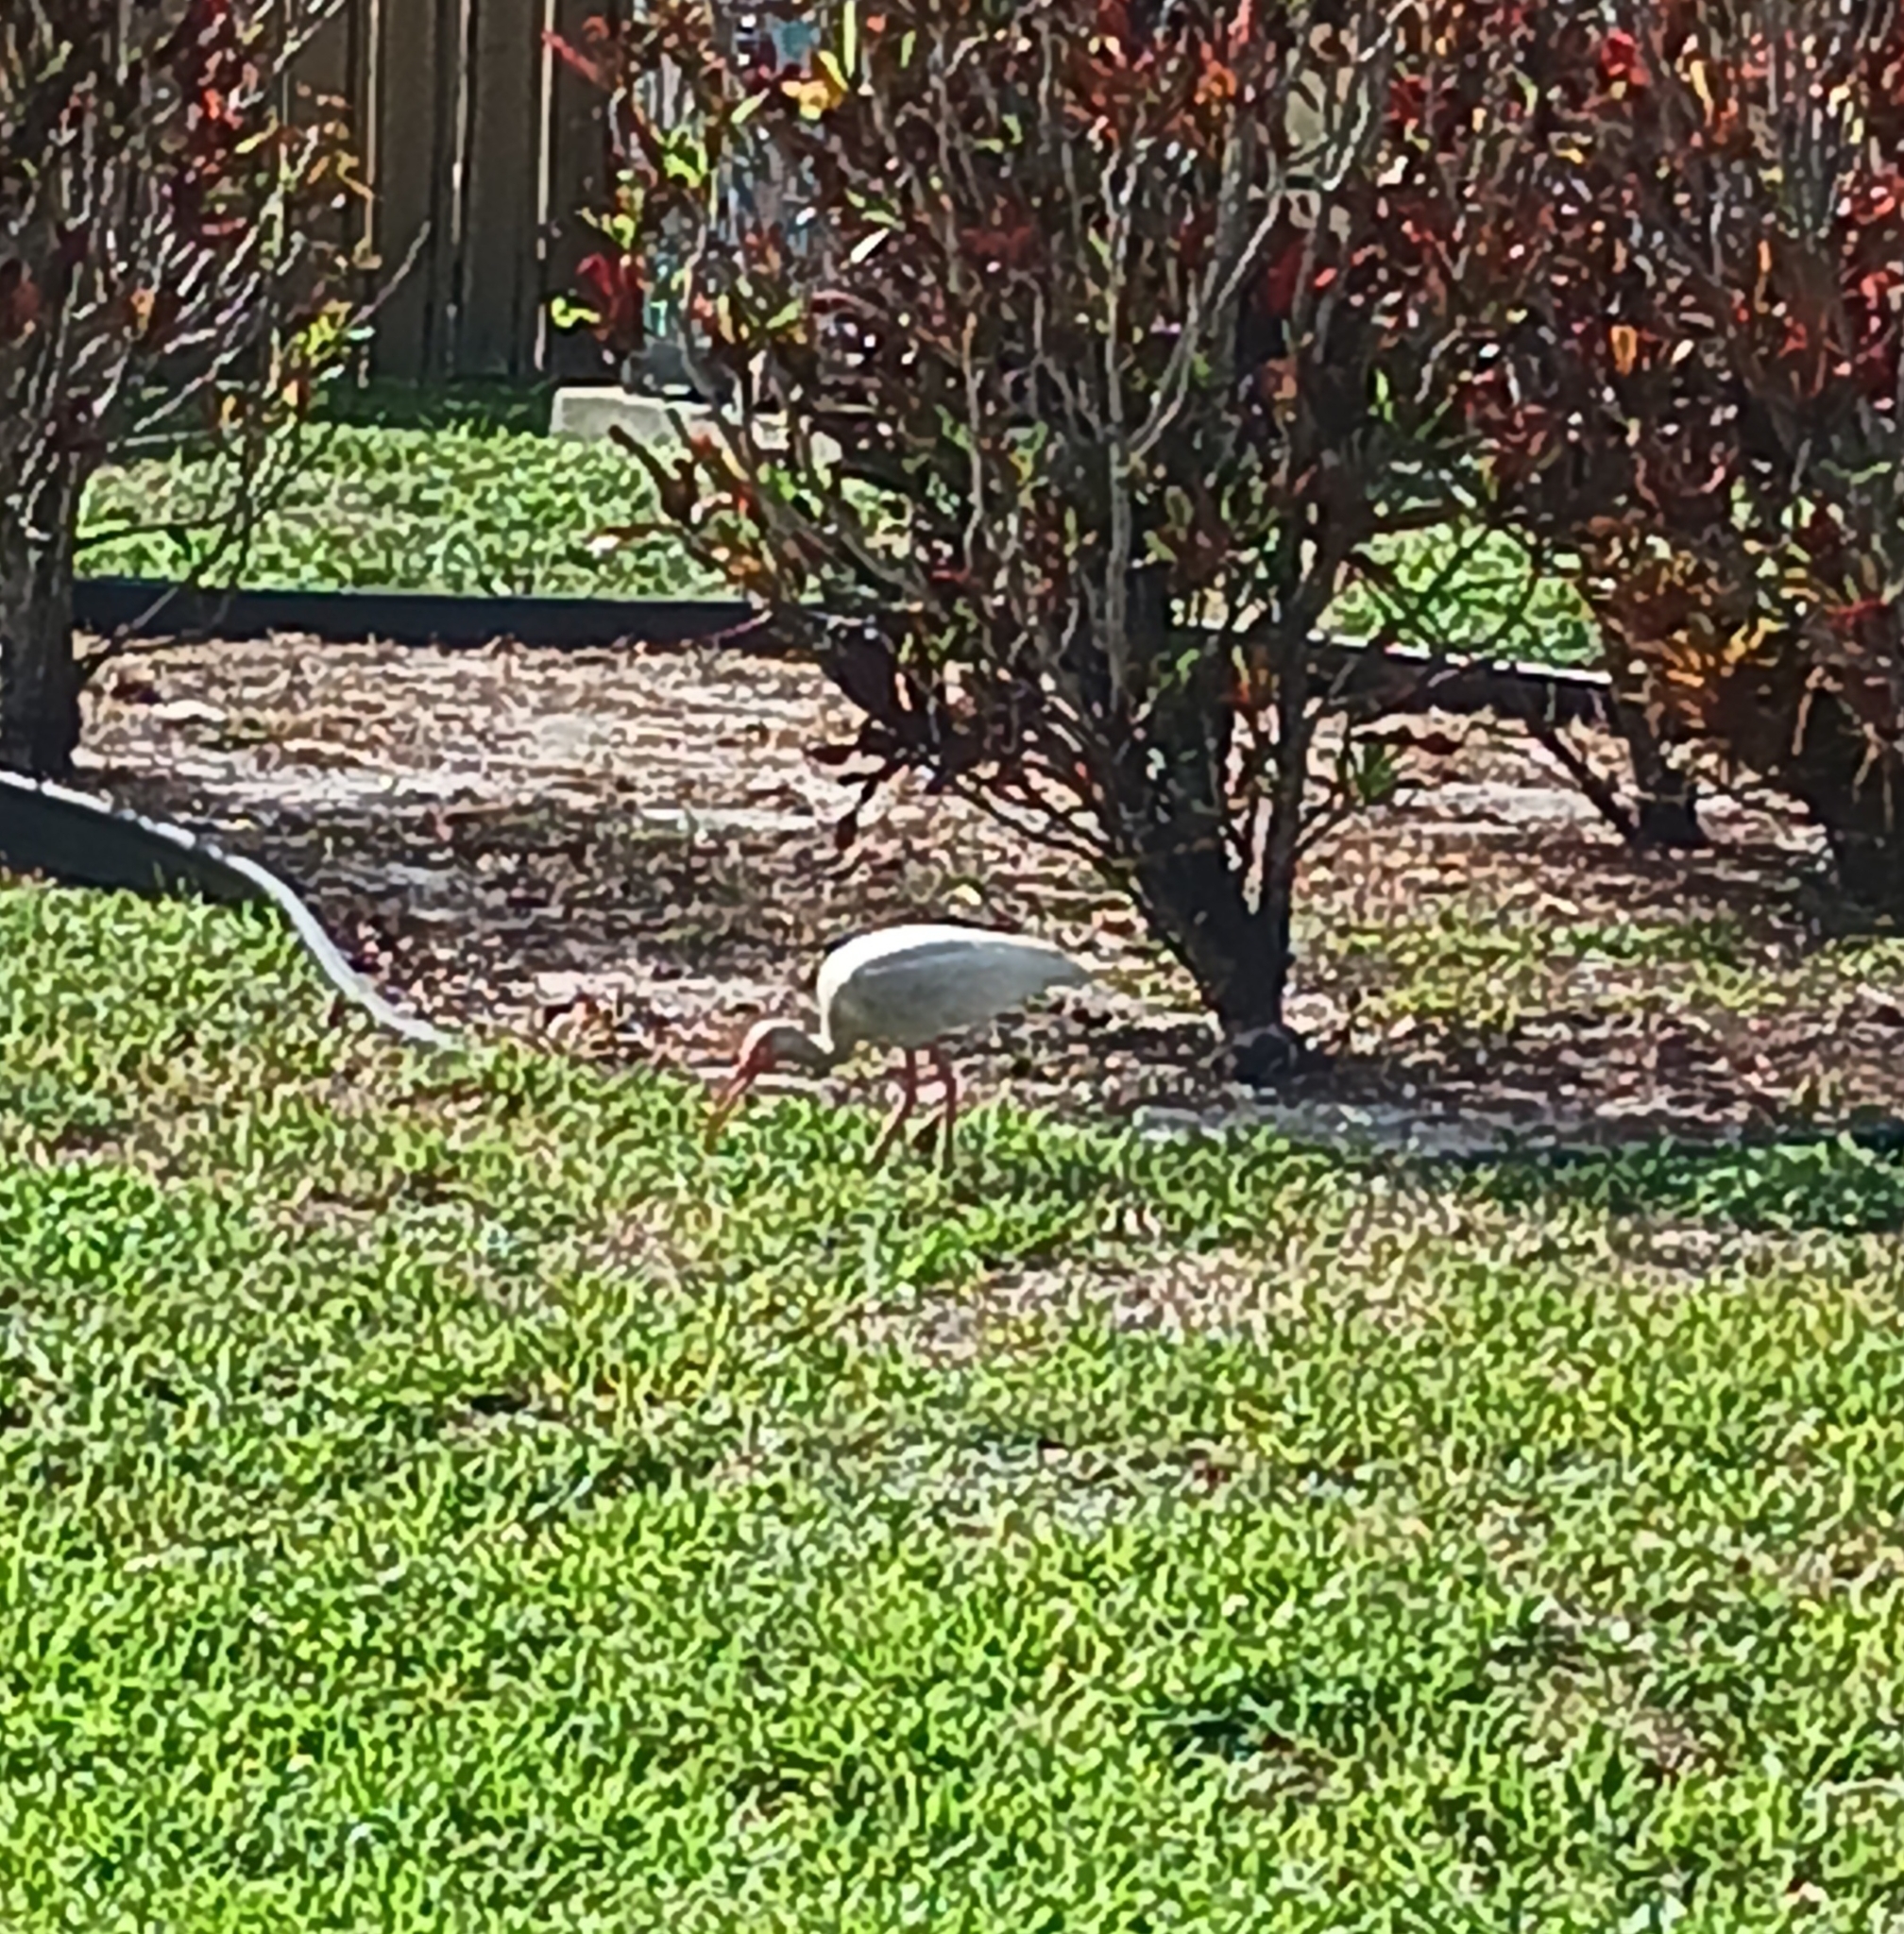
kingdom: Animalia
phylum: Chordata
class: Aves
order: Pelecaniformes
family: Threskiornithidae
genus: Eudocimus
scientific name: Eudocimus albus
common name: White ibis
